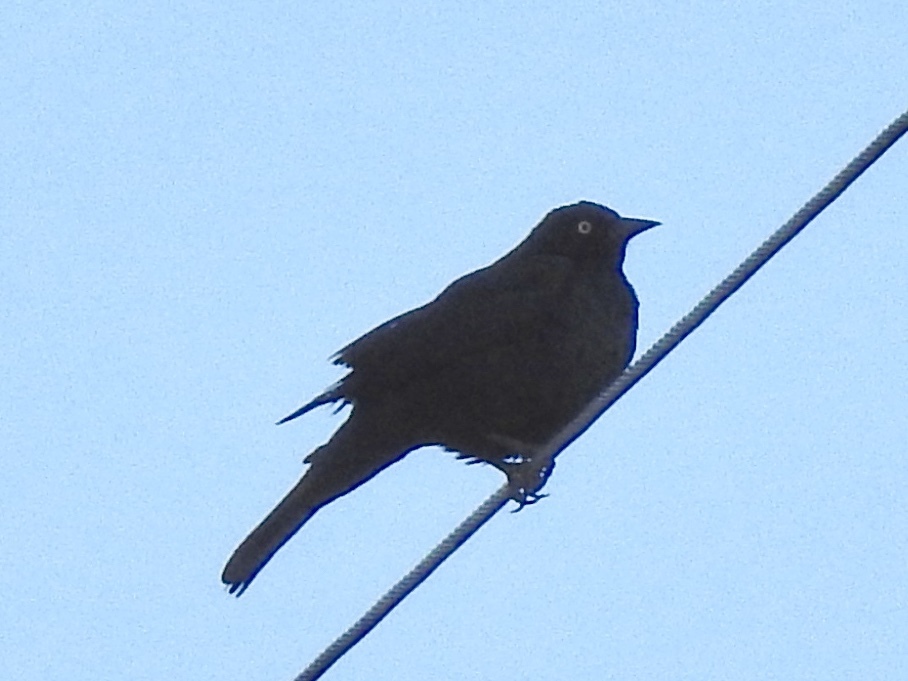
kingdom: Animalia
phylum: Chordata
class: Aves
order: Passeriformes
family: Icteridae
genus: Euphagus
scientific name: Euphagus cyanocephalus
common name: Brewer's blackbird
